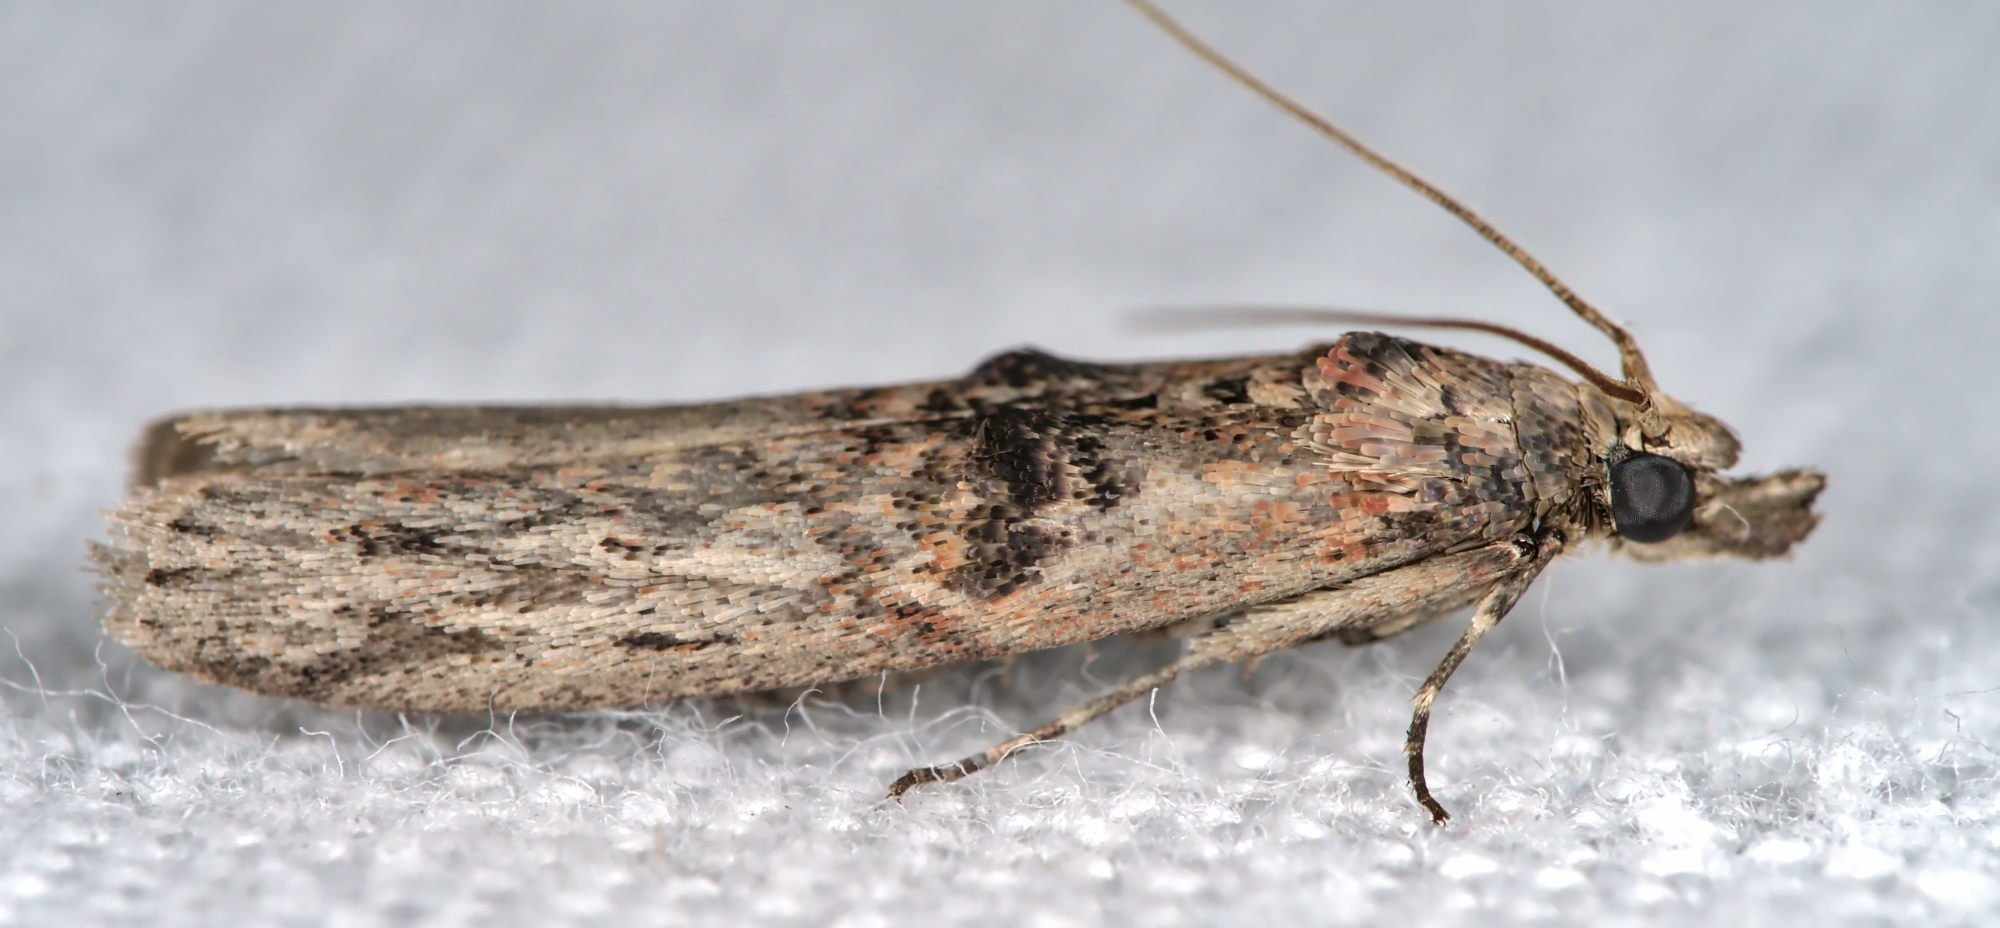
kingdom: Animalia
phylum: Arthropoda
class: Insecta
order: Lepidoptera
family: Pyralidae
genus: Nephopterix
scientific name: Nephopterix angustella
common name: Spindle knot-horn
